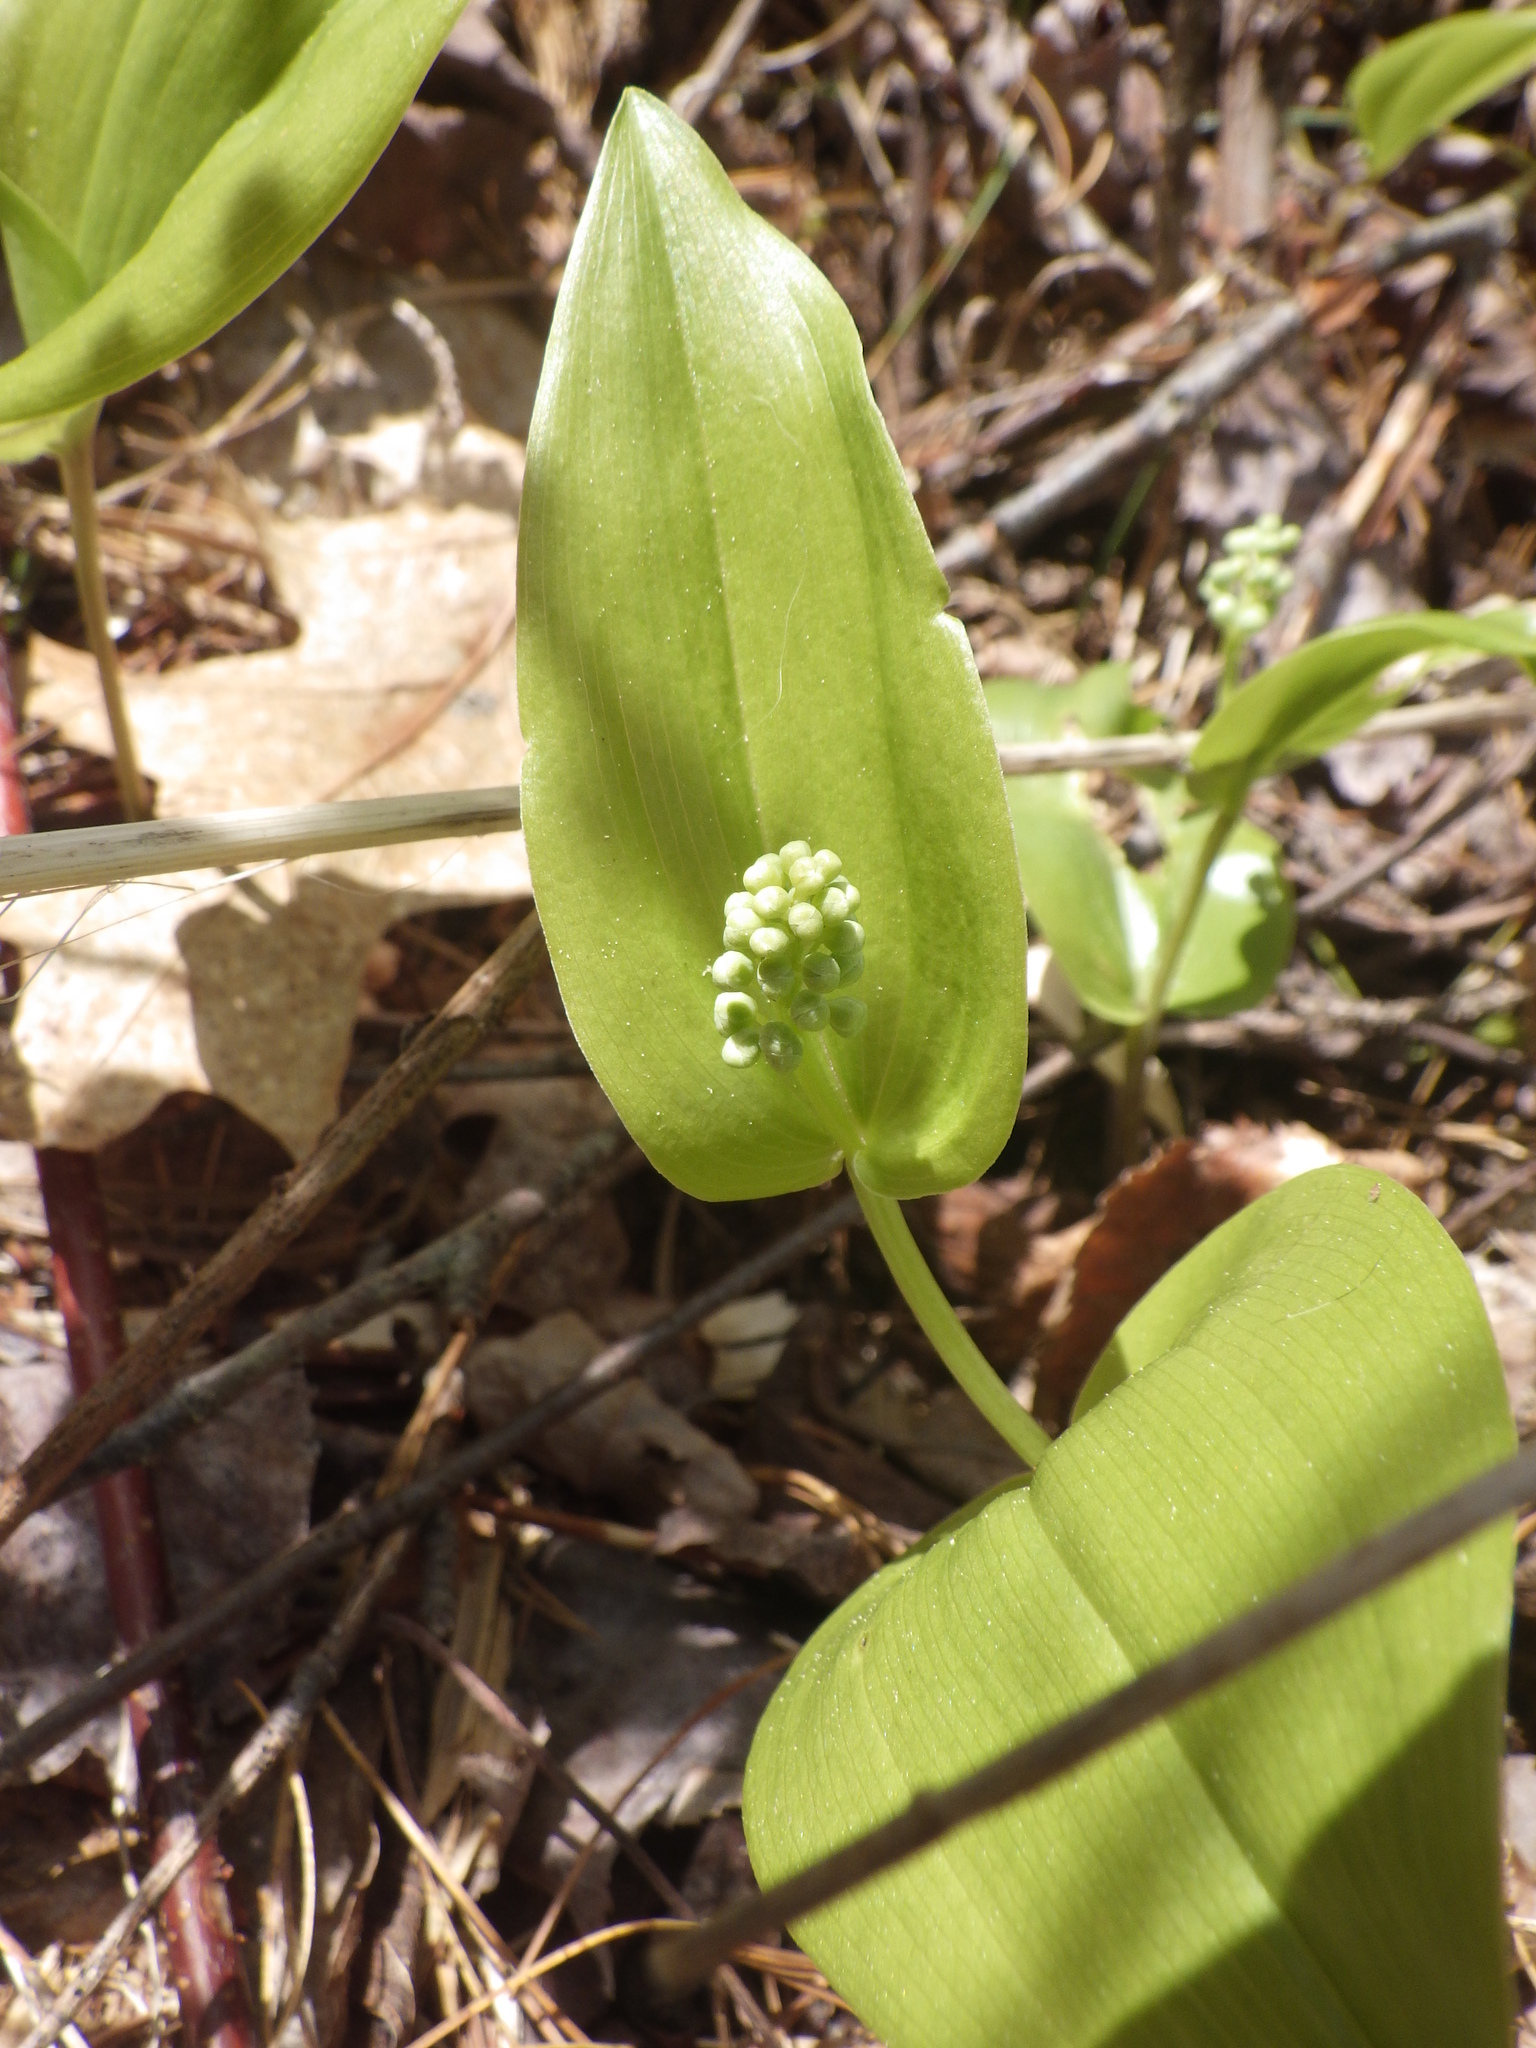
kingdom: Plantae
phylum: Tracheophyta
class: Liliopsida
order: Asparagales
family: Asparagaceae
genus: Maianthemum
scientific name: Maianthemum canadense
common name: False lily-of-the-valley
